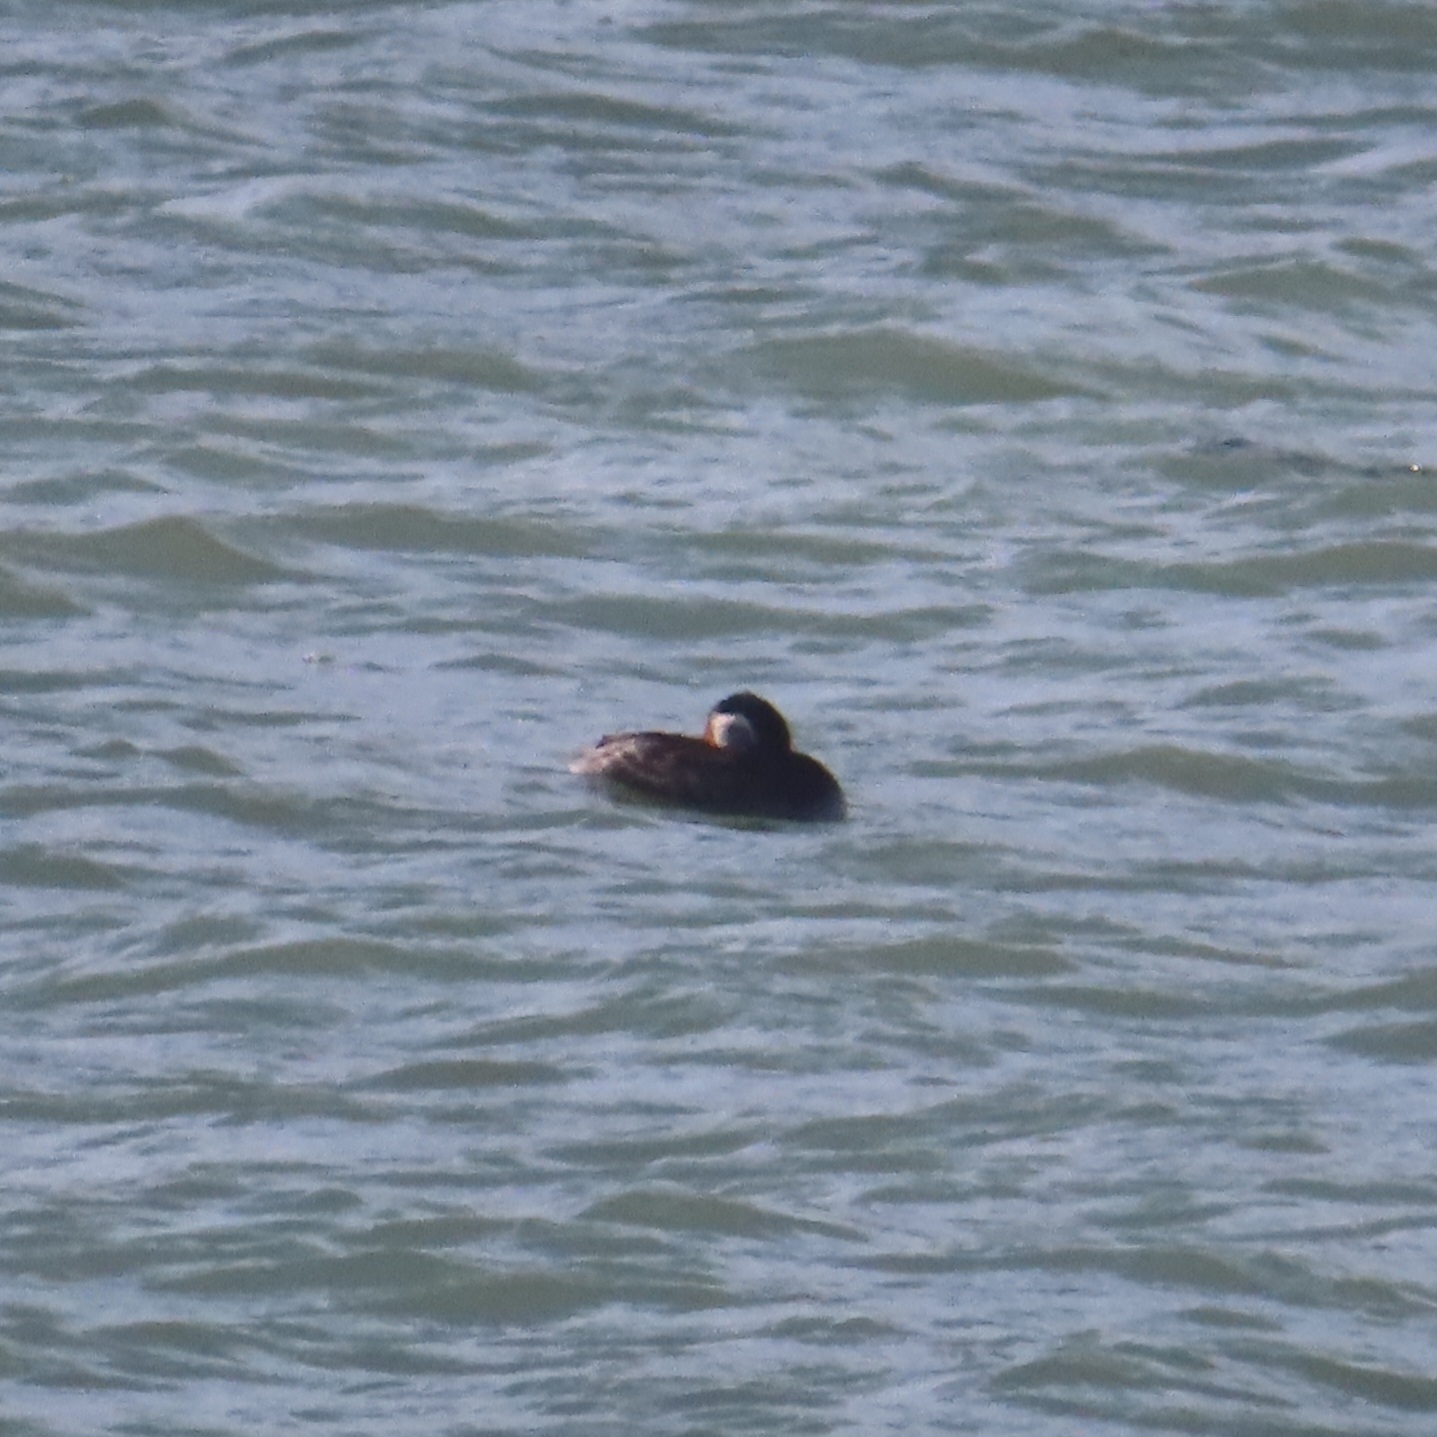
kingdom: Animalia
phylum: Chordata
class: Aves
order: Podicipediformes
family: Podicipedidae
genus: Podiceps
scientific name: Podiceps grisegena
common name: Red-necked grebe
